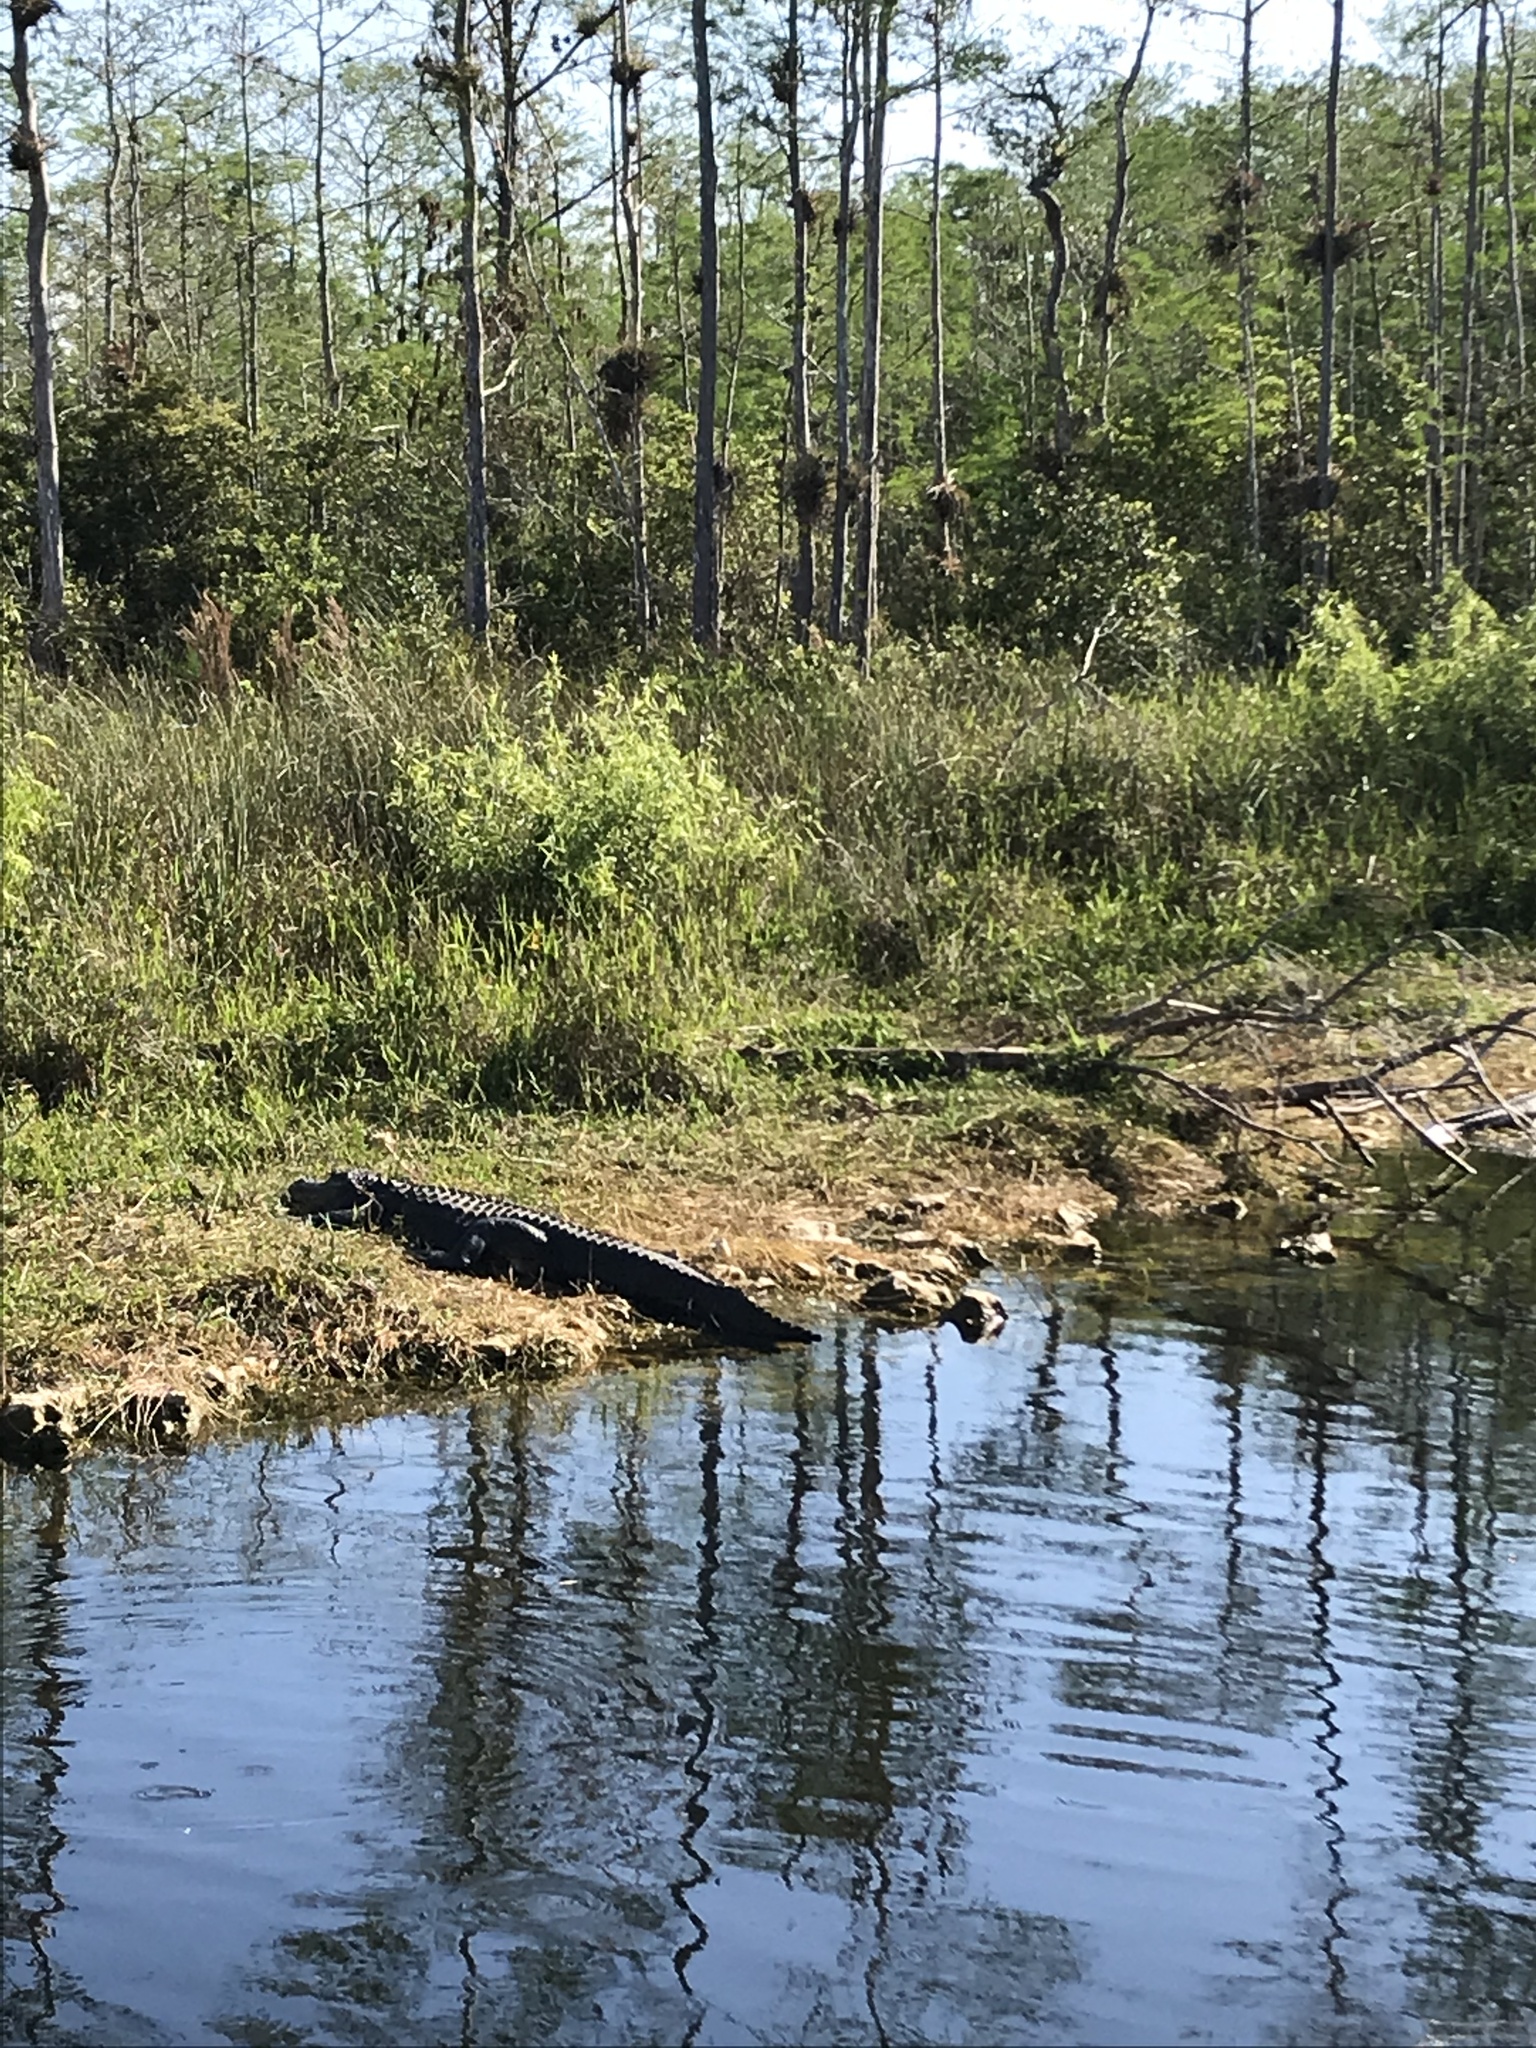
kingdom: Animalia
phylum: Chordata
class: Crocodylia
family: Alligatoridae
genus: Alligator
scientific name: Alligator mississippiensis
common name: American alligator
